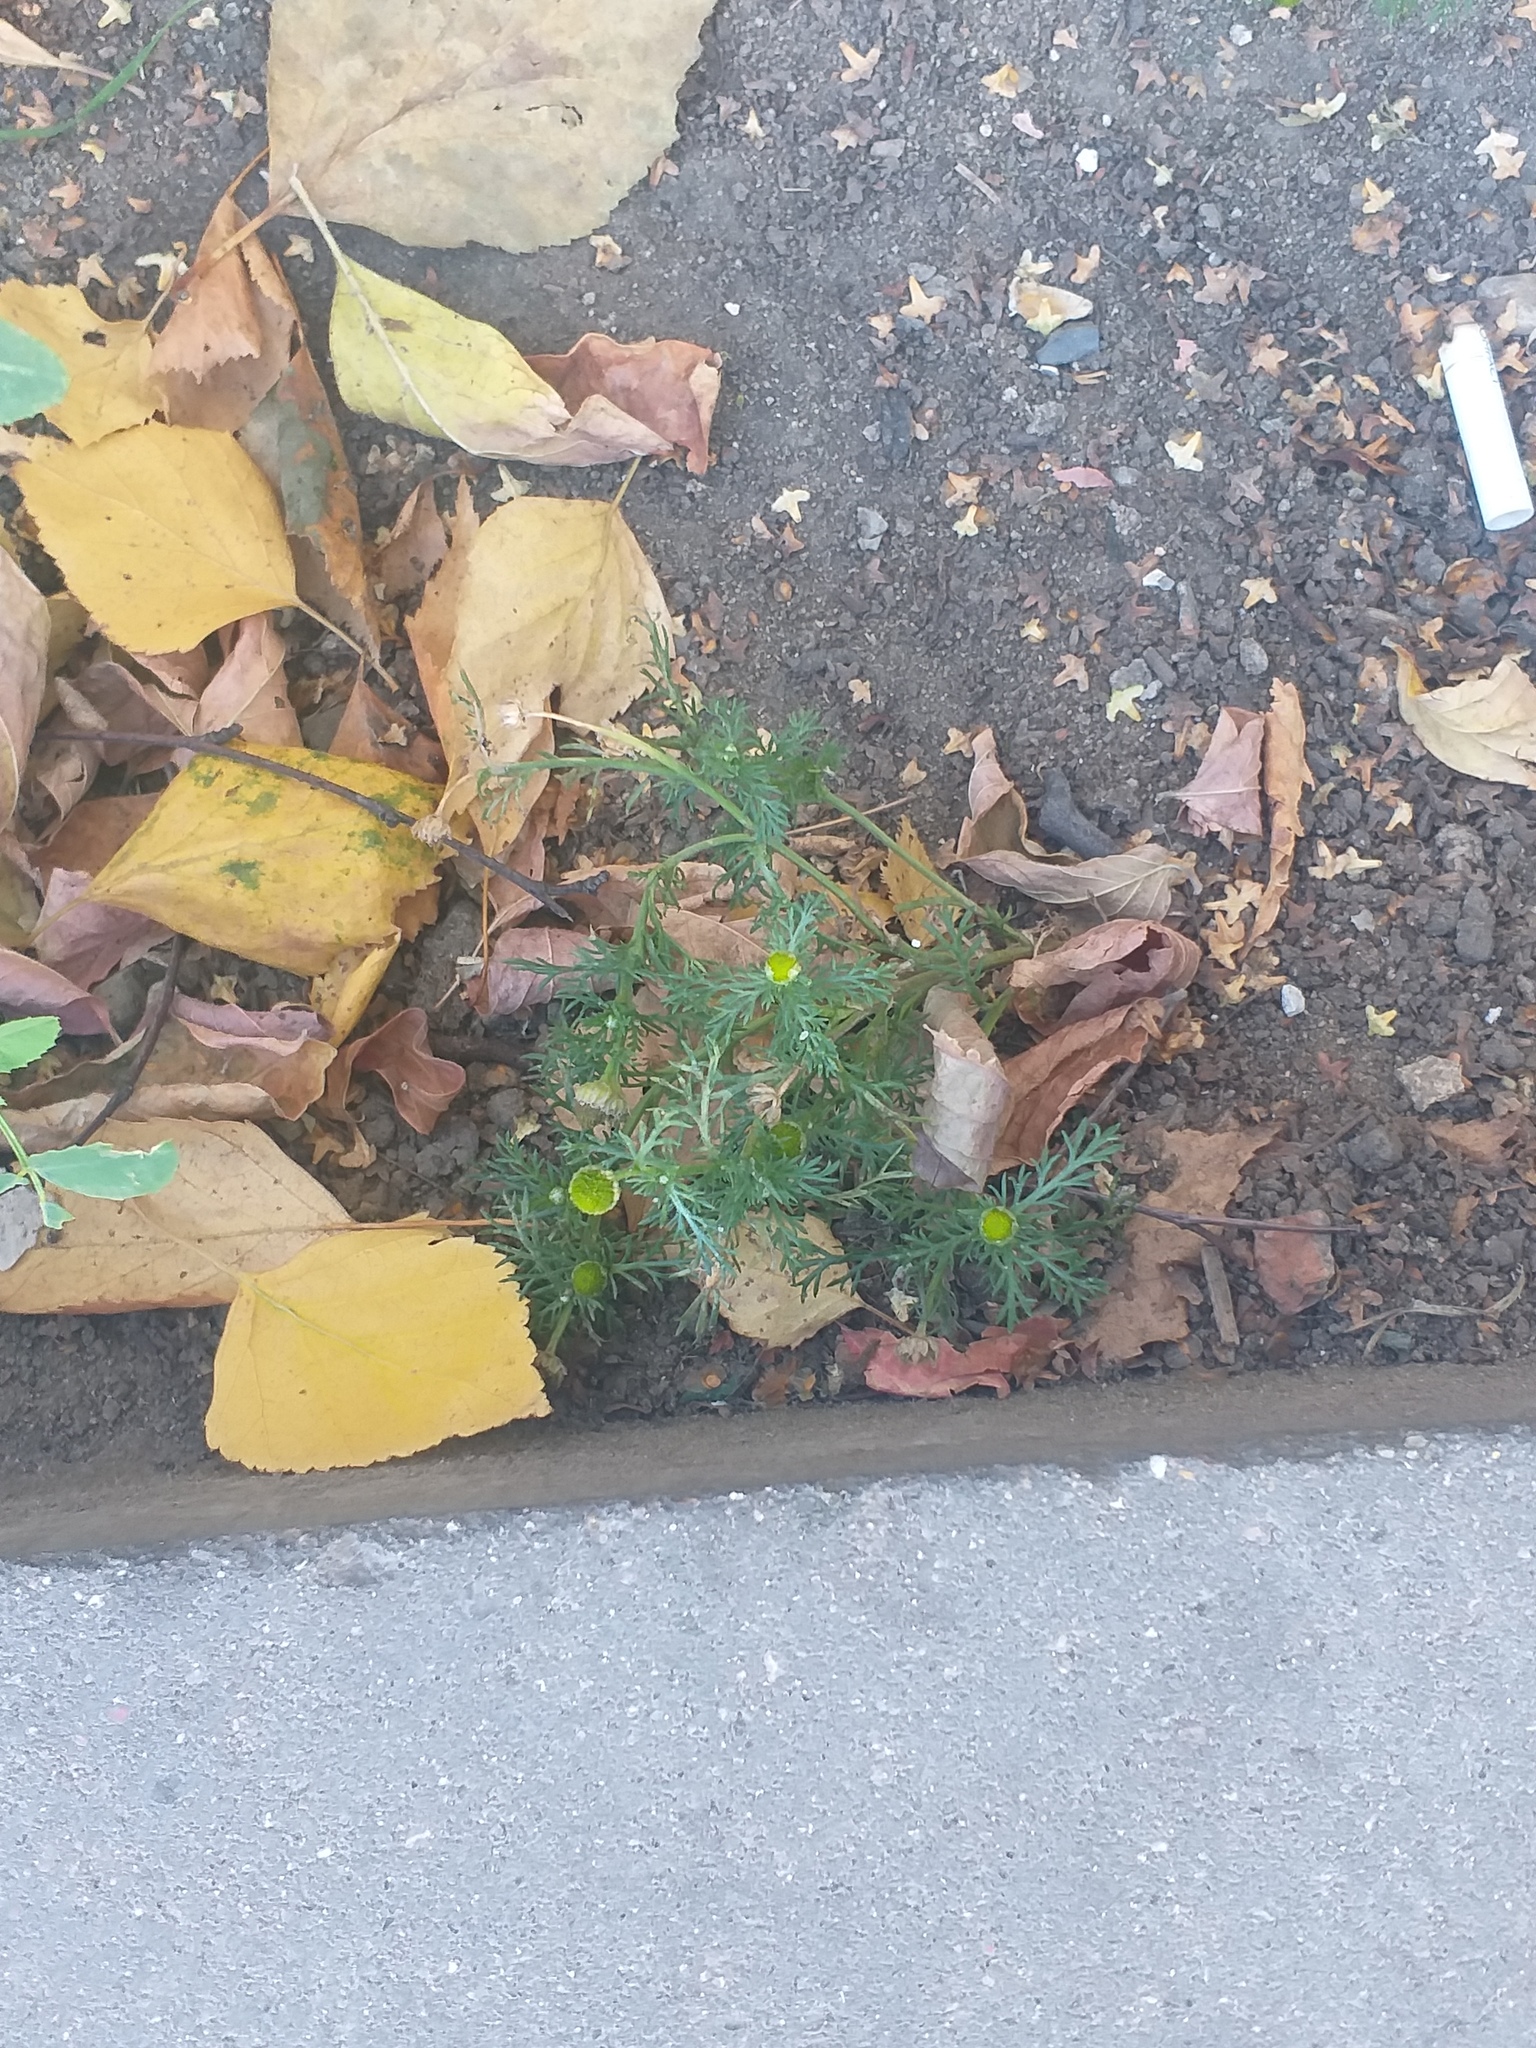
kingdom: Plantae
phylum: Tracheophyta
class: Magnoliopsida
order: Asterales
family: Asteraceae
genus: Matricaria
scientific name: Matricaria discoidea
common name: Disc mayweed
